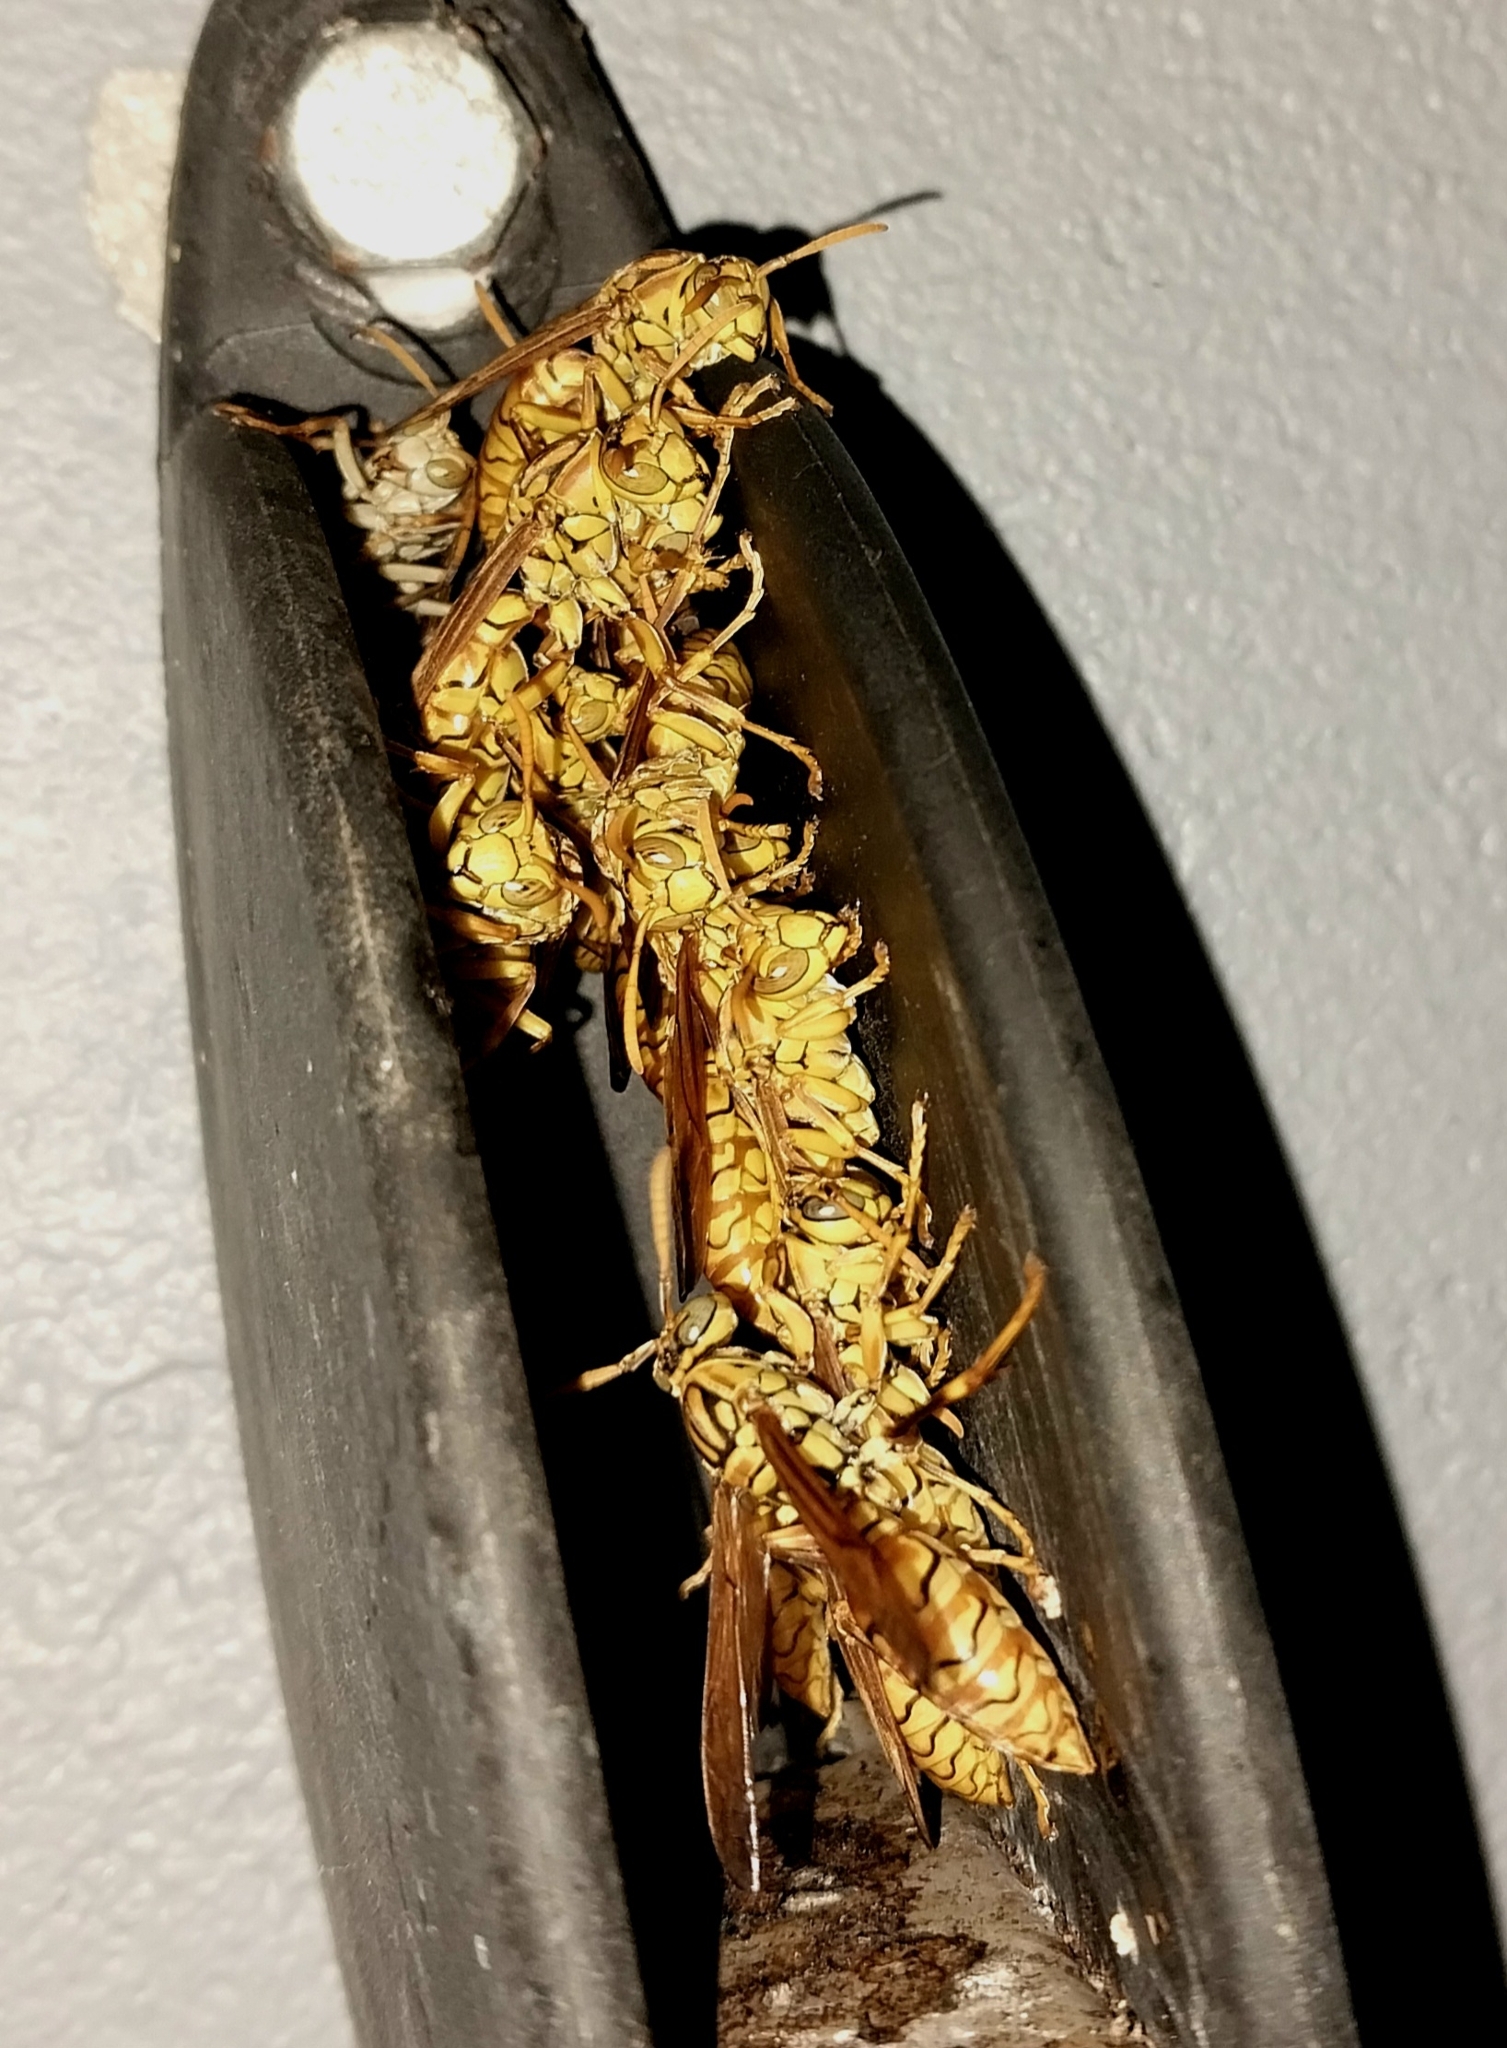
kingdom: Animalia
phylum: Arthropoda
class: Insecta
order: Hymenoptera
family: Eumenidae
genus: Polistes
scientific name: Polistes olivaceus
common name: Paper wasp
